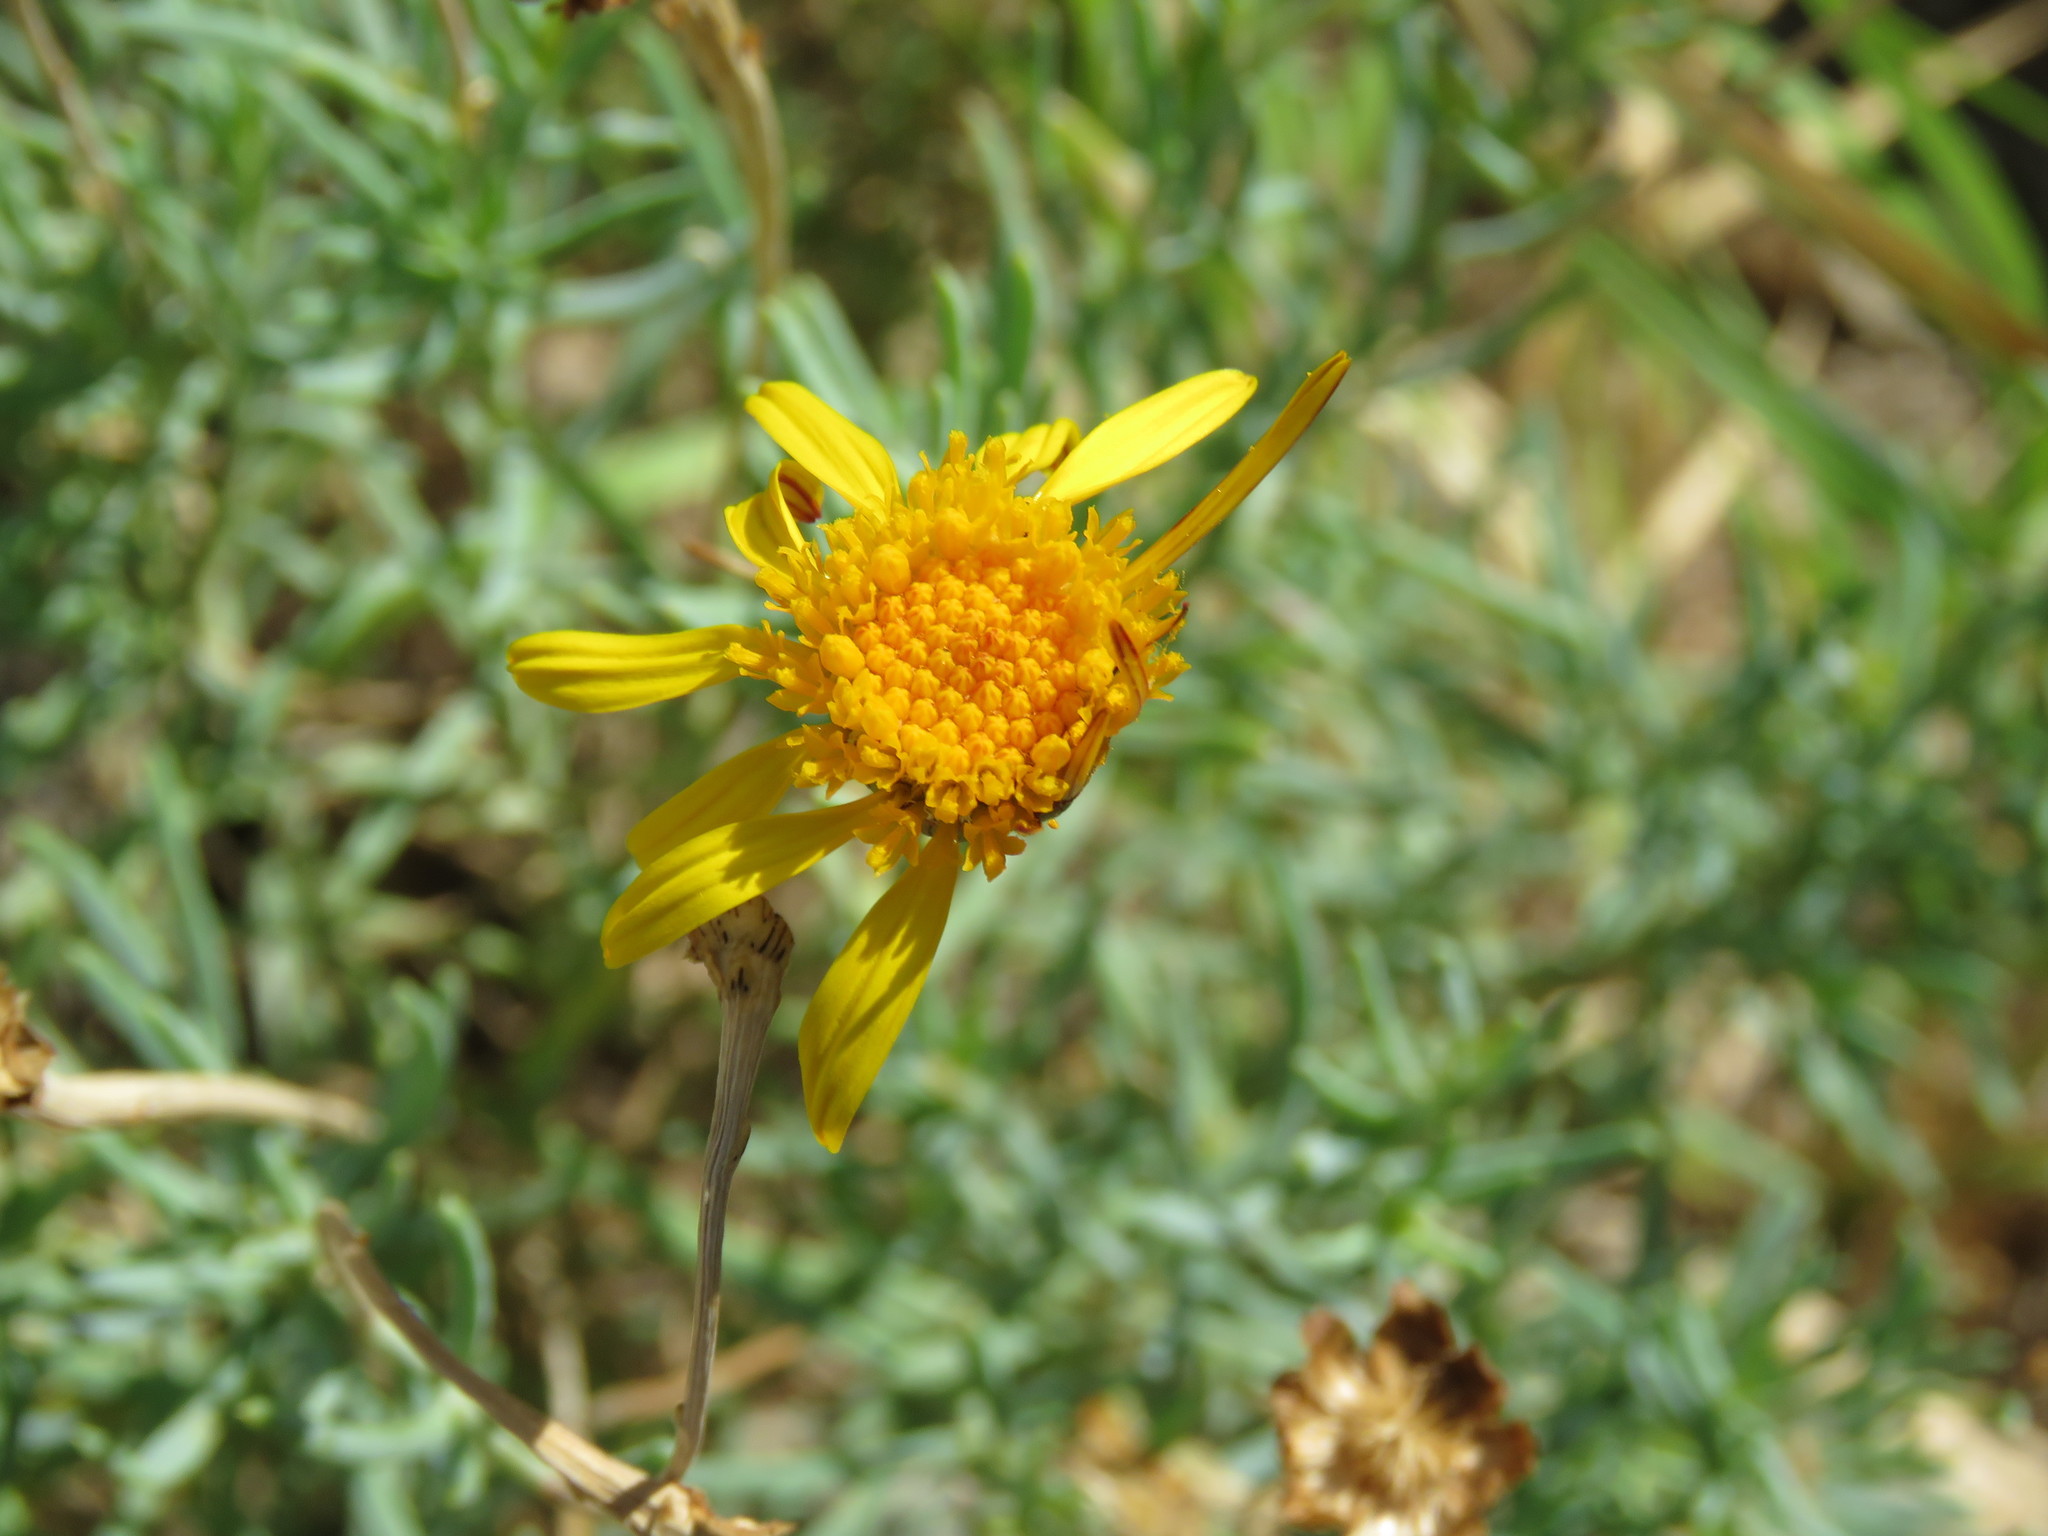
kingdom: Plantae
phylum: Tracheophyta
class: Magnoliopsida
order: Asterales
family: Asteraceae
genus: Clappia
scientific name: Clappia suaedifolia
